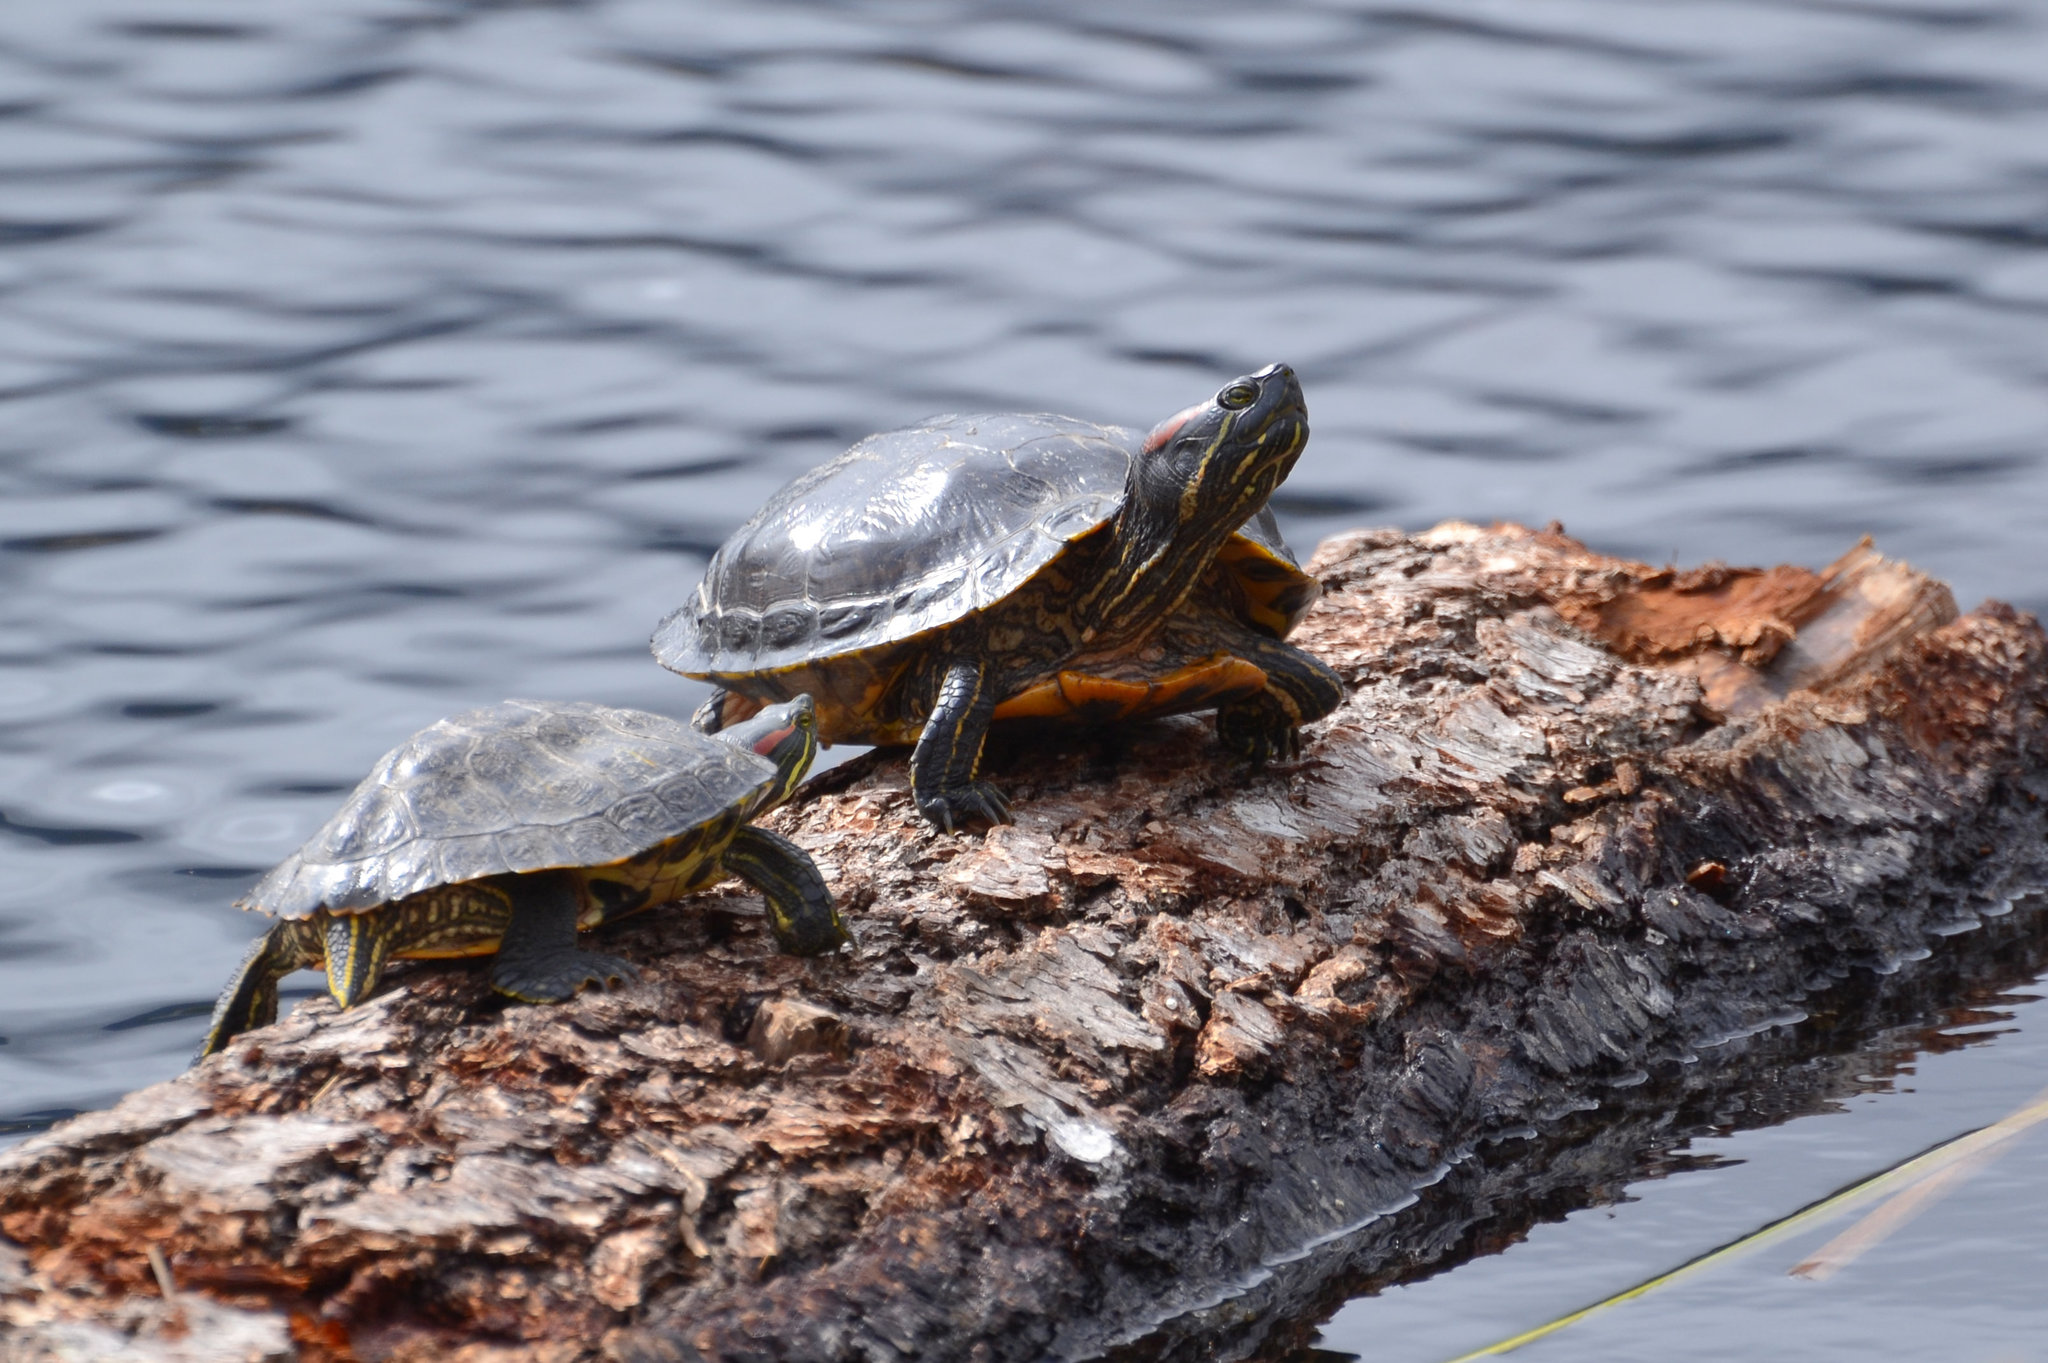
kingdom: Animalia
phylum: Chordata
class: Testudines
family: Emydidae
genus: Trachemys
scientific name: Trachemys scripta
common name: Slider
